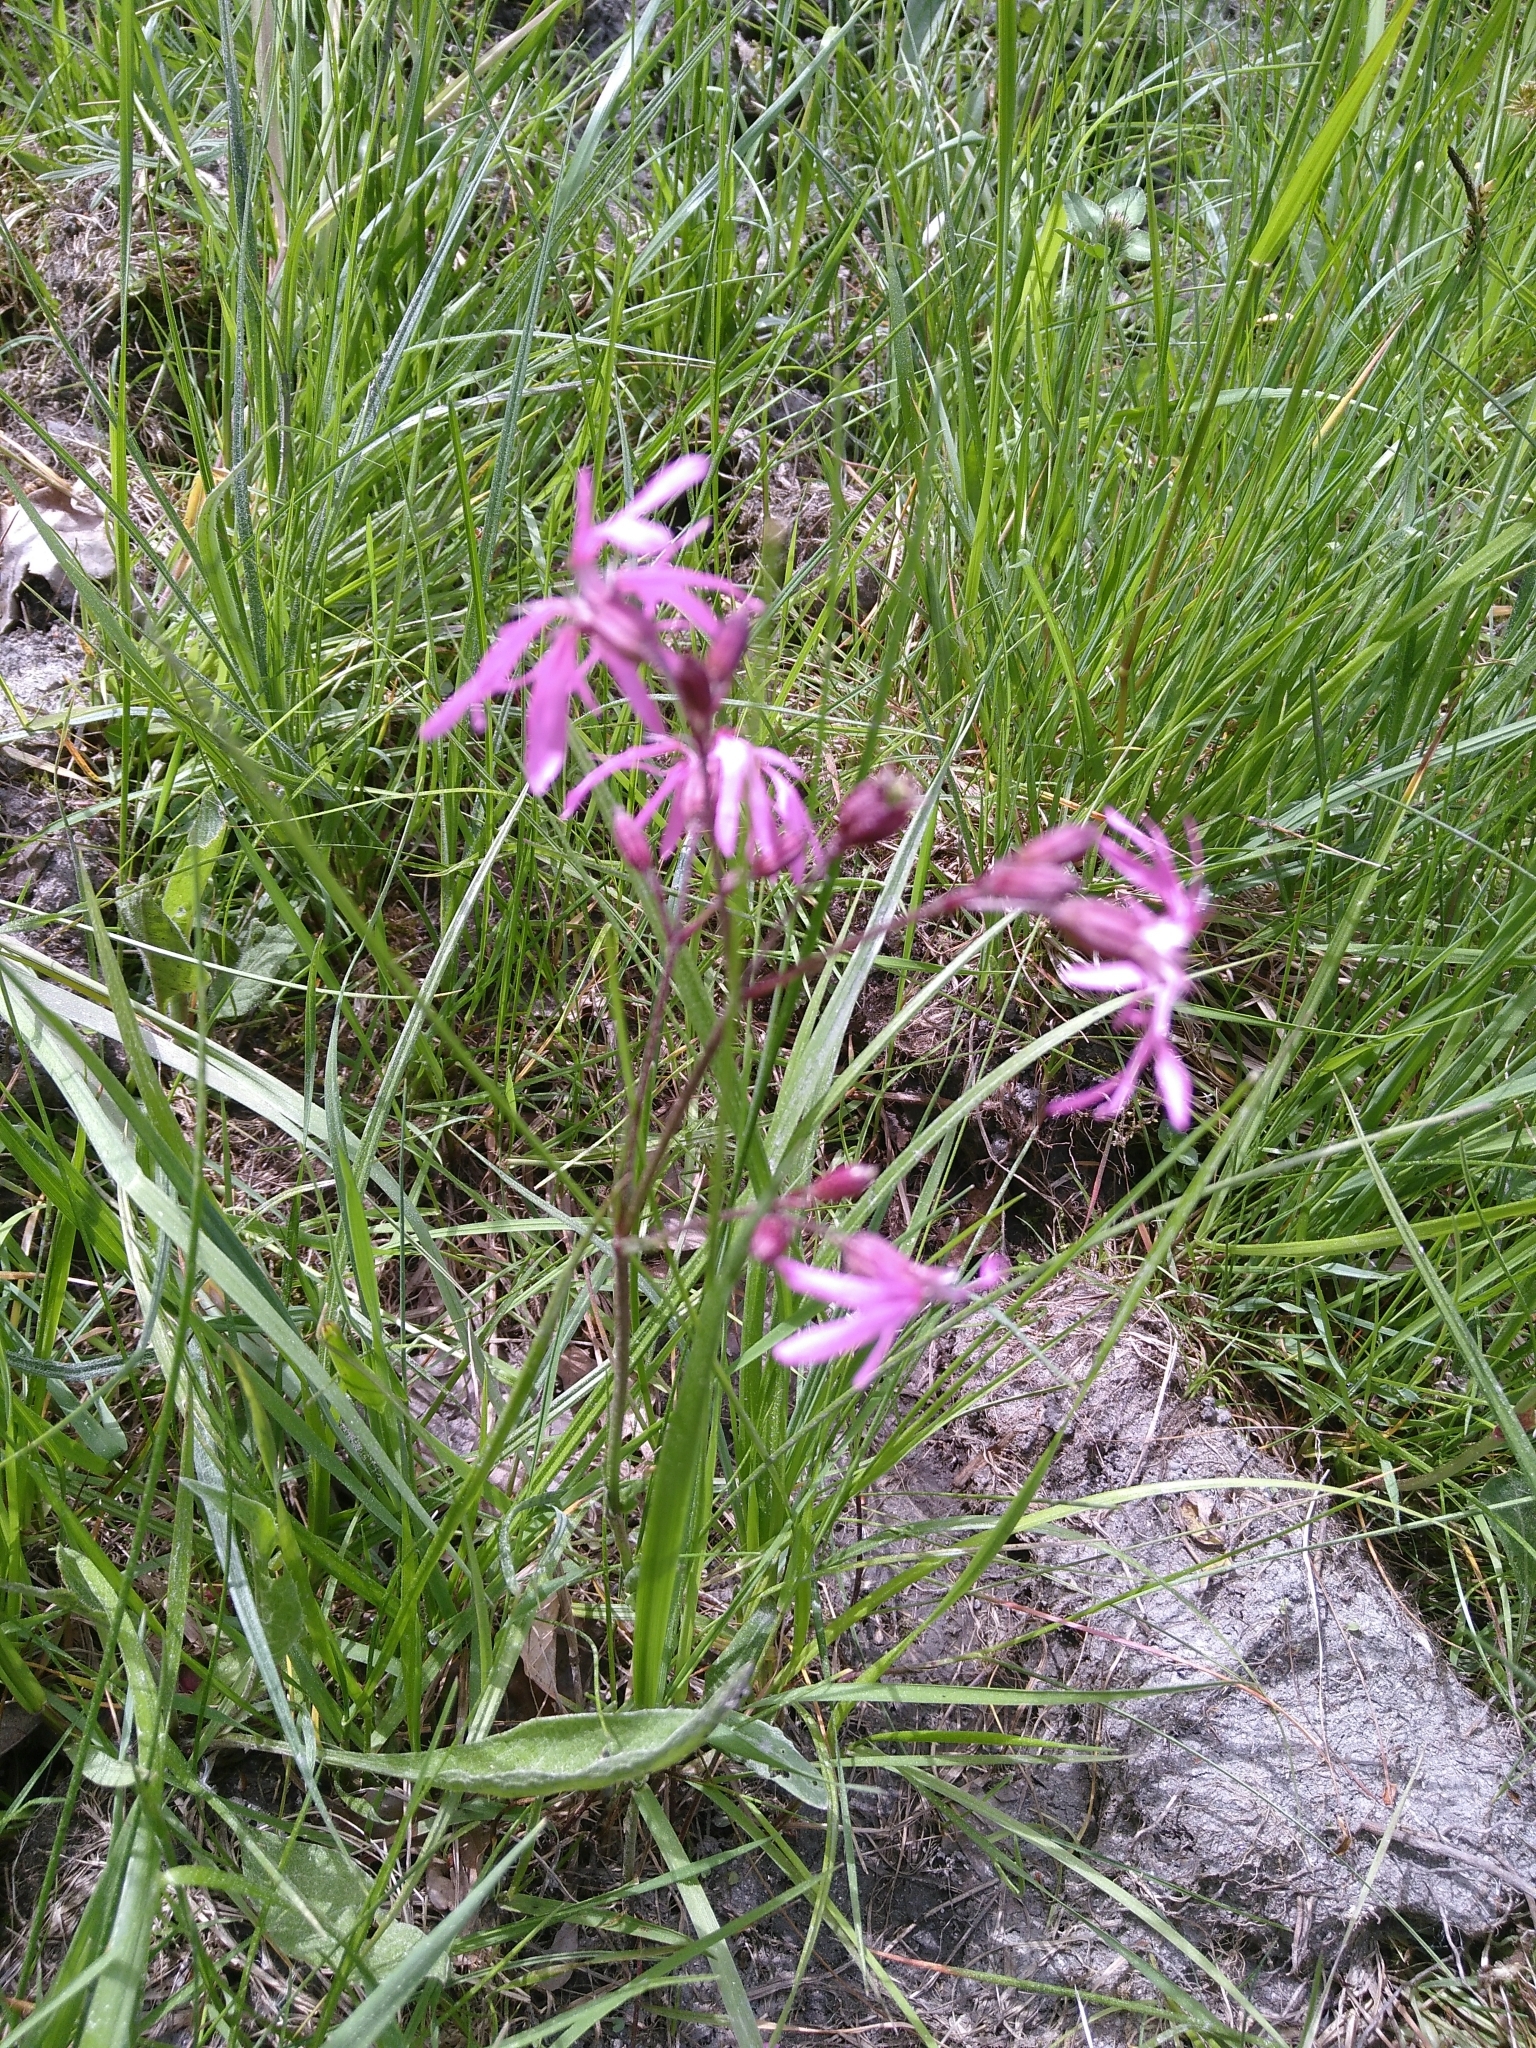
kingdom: Plantae
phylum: Tracheophyta
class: Magnoliopsida
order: Caryophyllales
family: Caryophyllaceae
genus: Silene
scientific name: Silene flos-cuculi
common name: Ragged-robin
